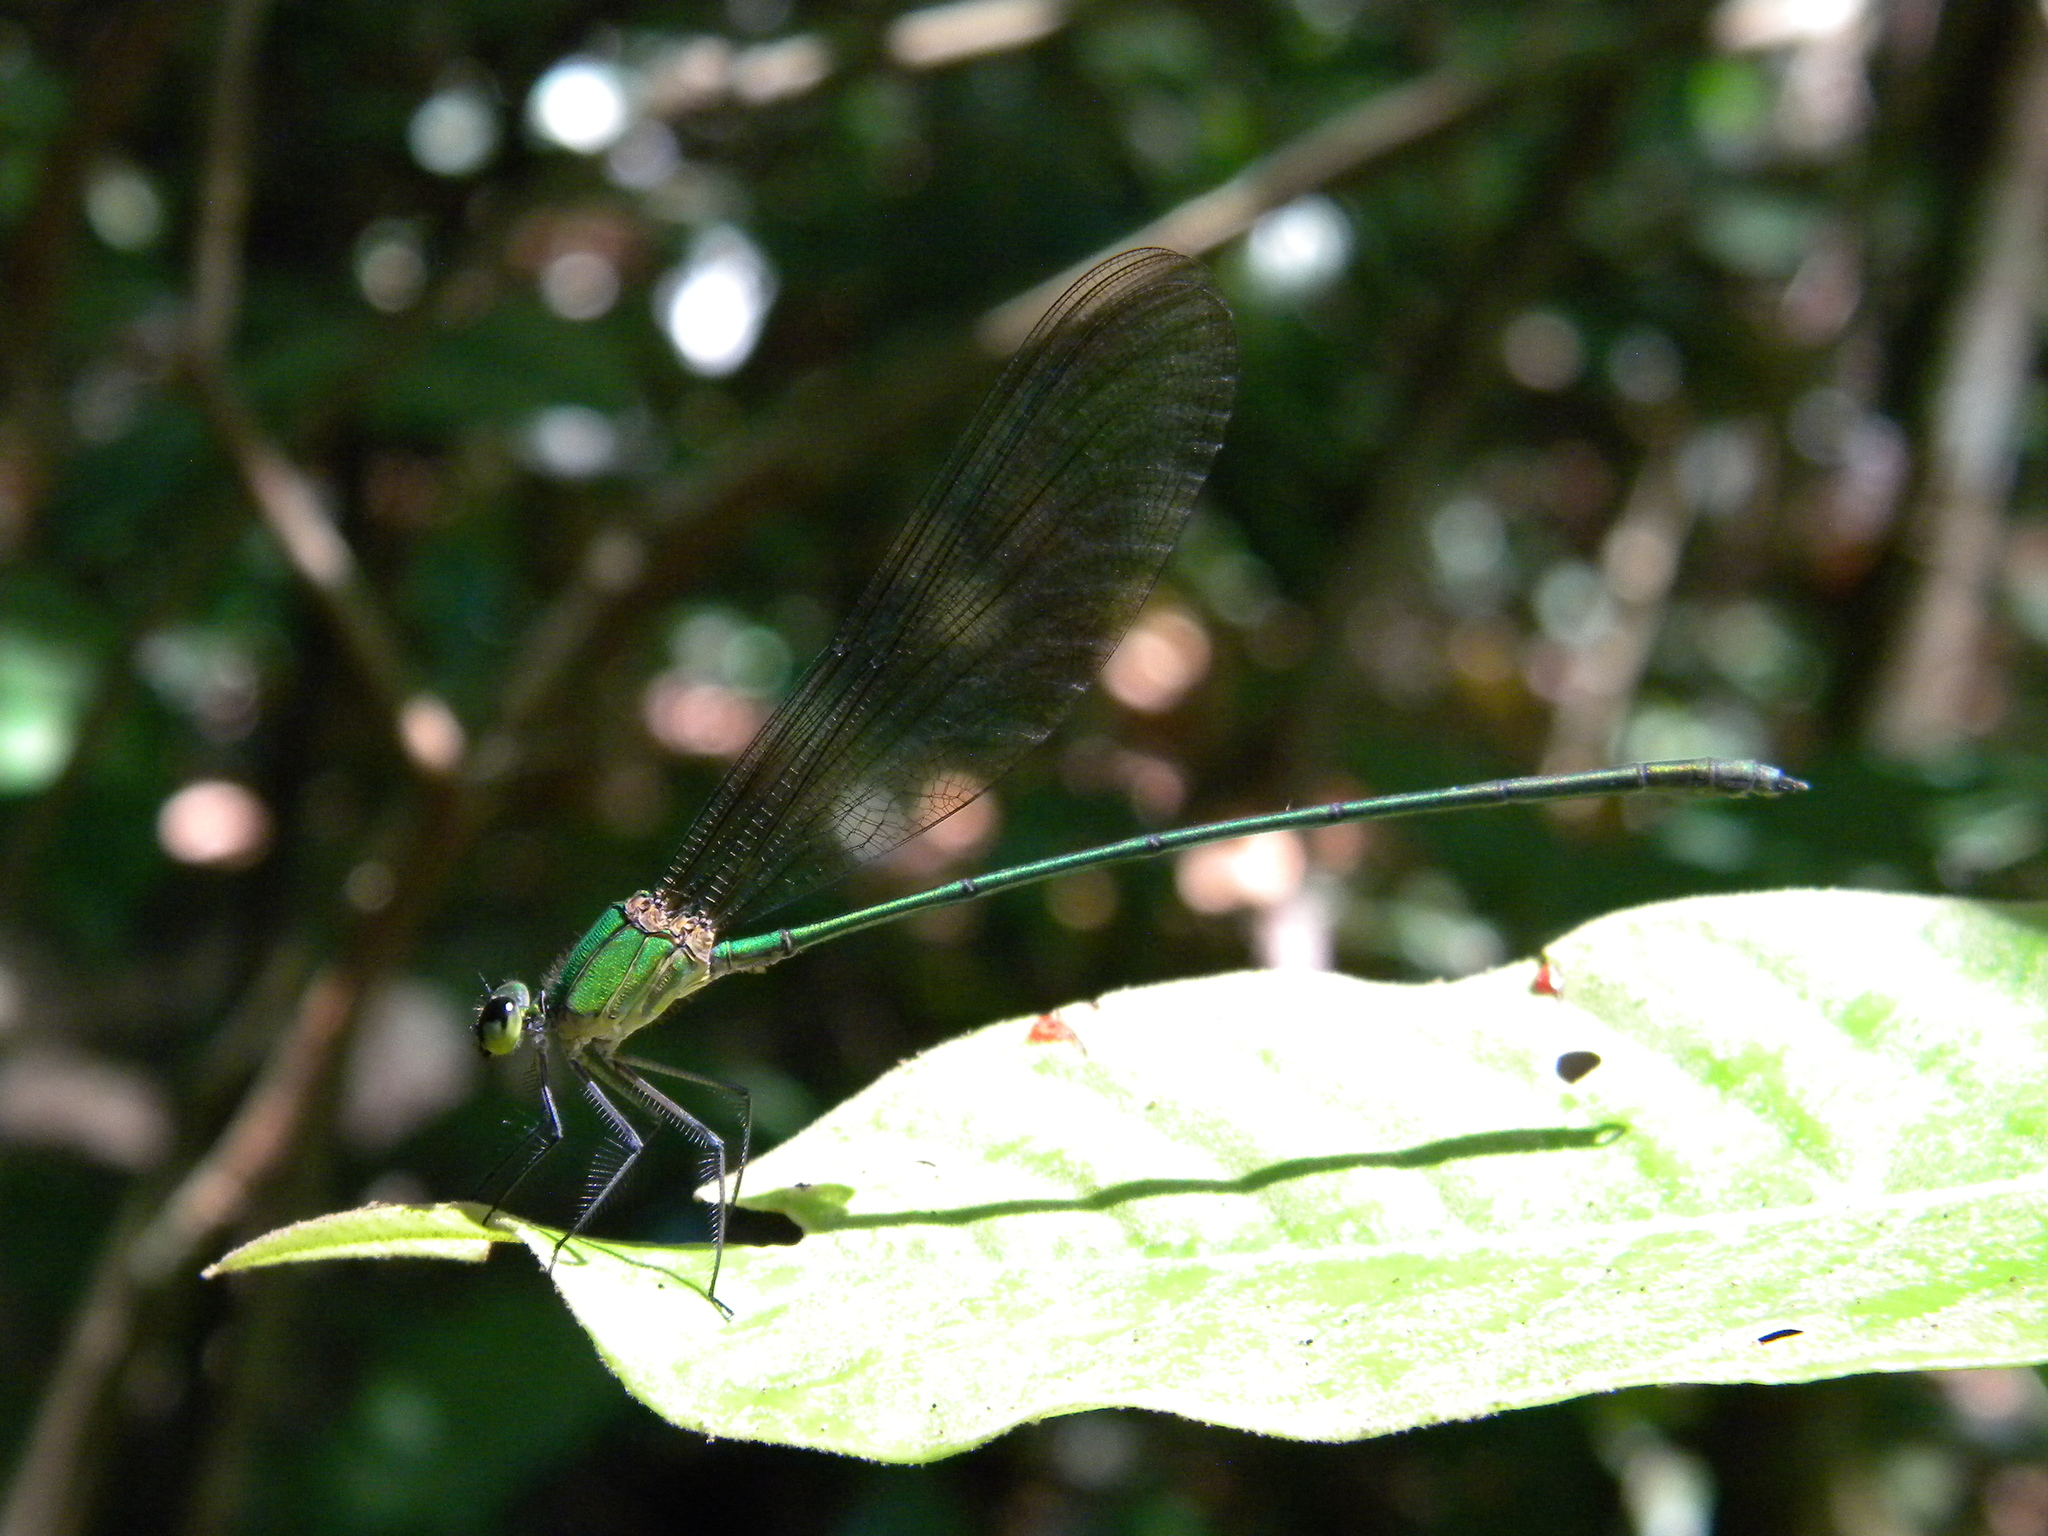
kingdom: Animalia
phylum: Arthropoda
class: Insecta
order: Odonata
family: Calopterygidae
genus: Vestalis
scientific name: Vestalis gracilis
